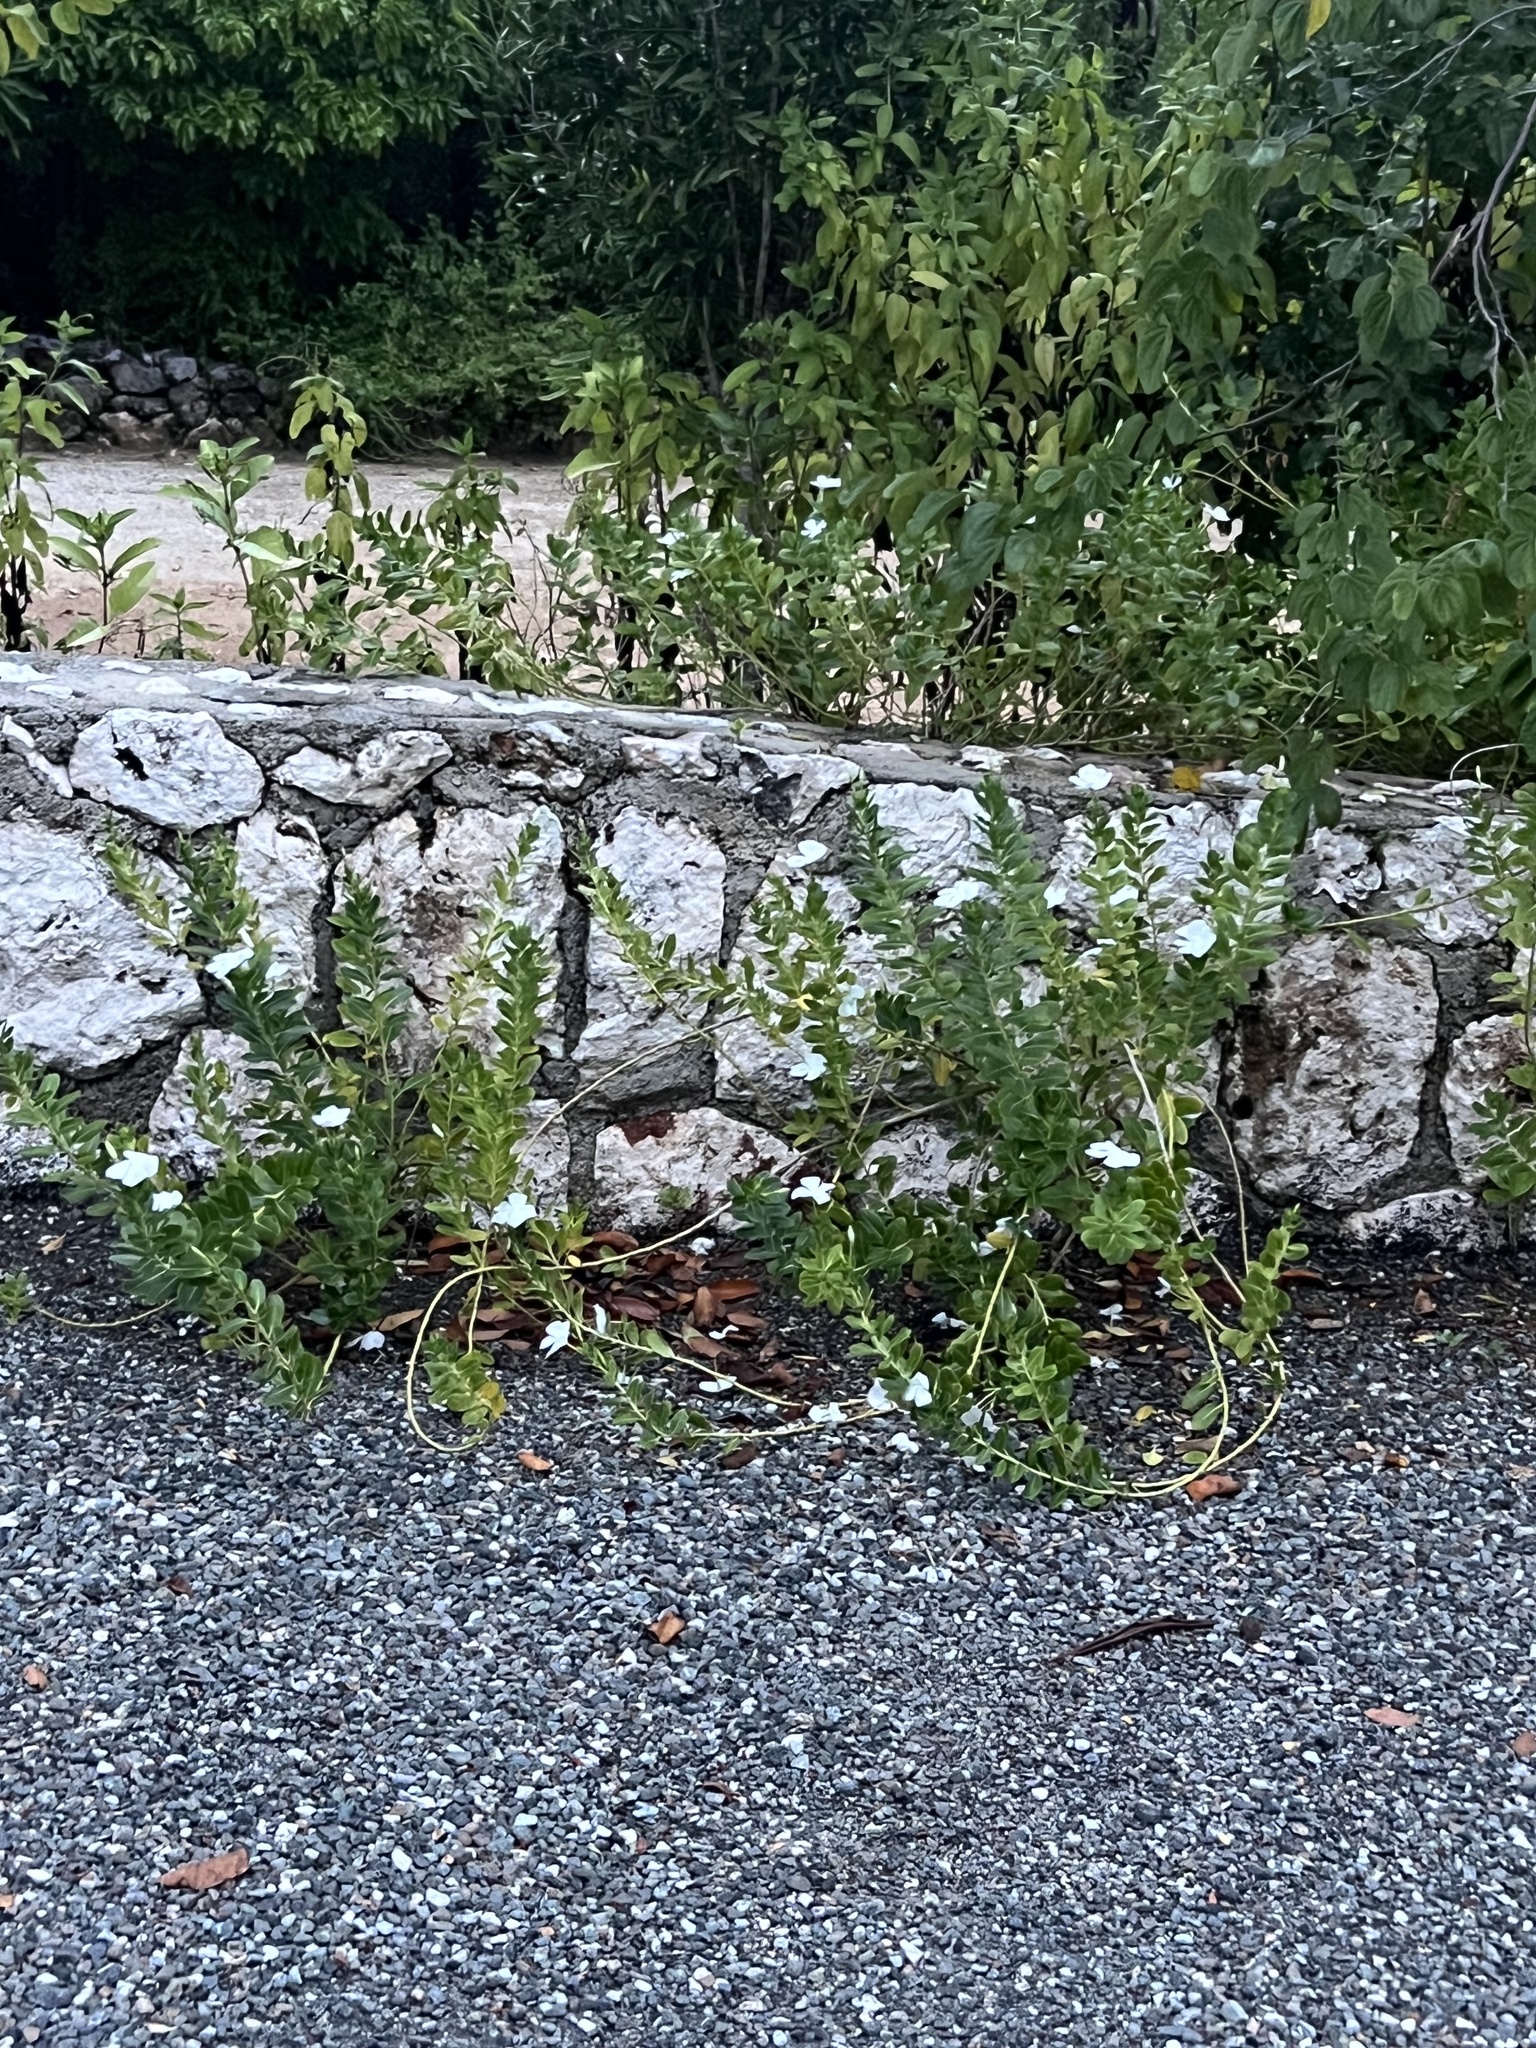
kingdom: Plantae
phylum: Tracheophyta
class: Magnoliopsida
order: Gentianales
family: Apocynaceae
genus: Catharanthus
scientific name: Catharanthus roseus
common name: Madagascar periwinkle
